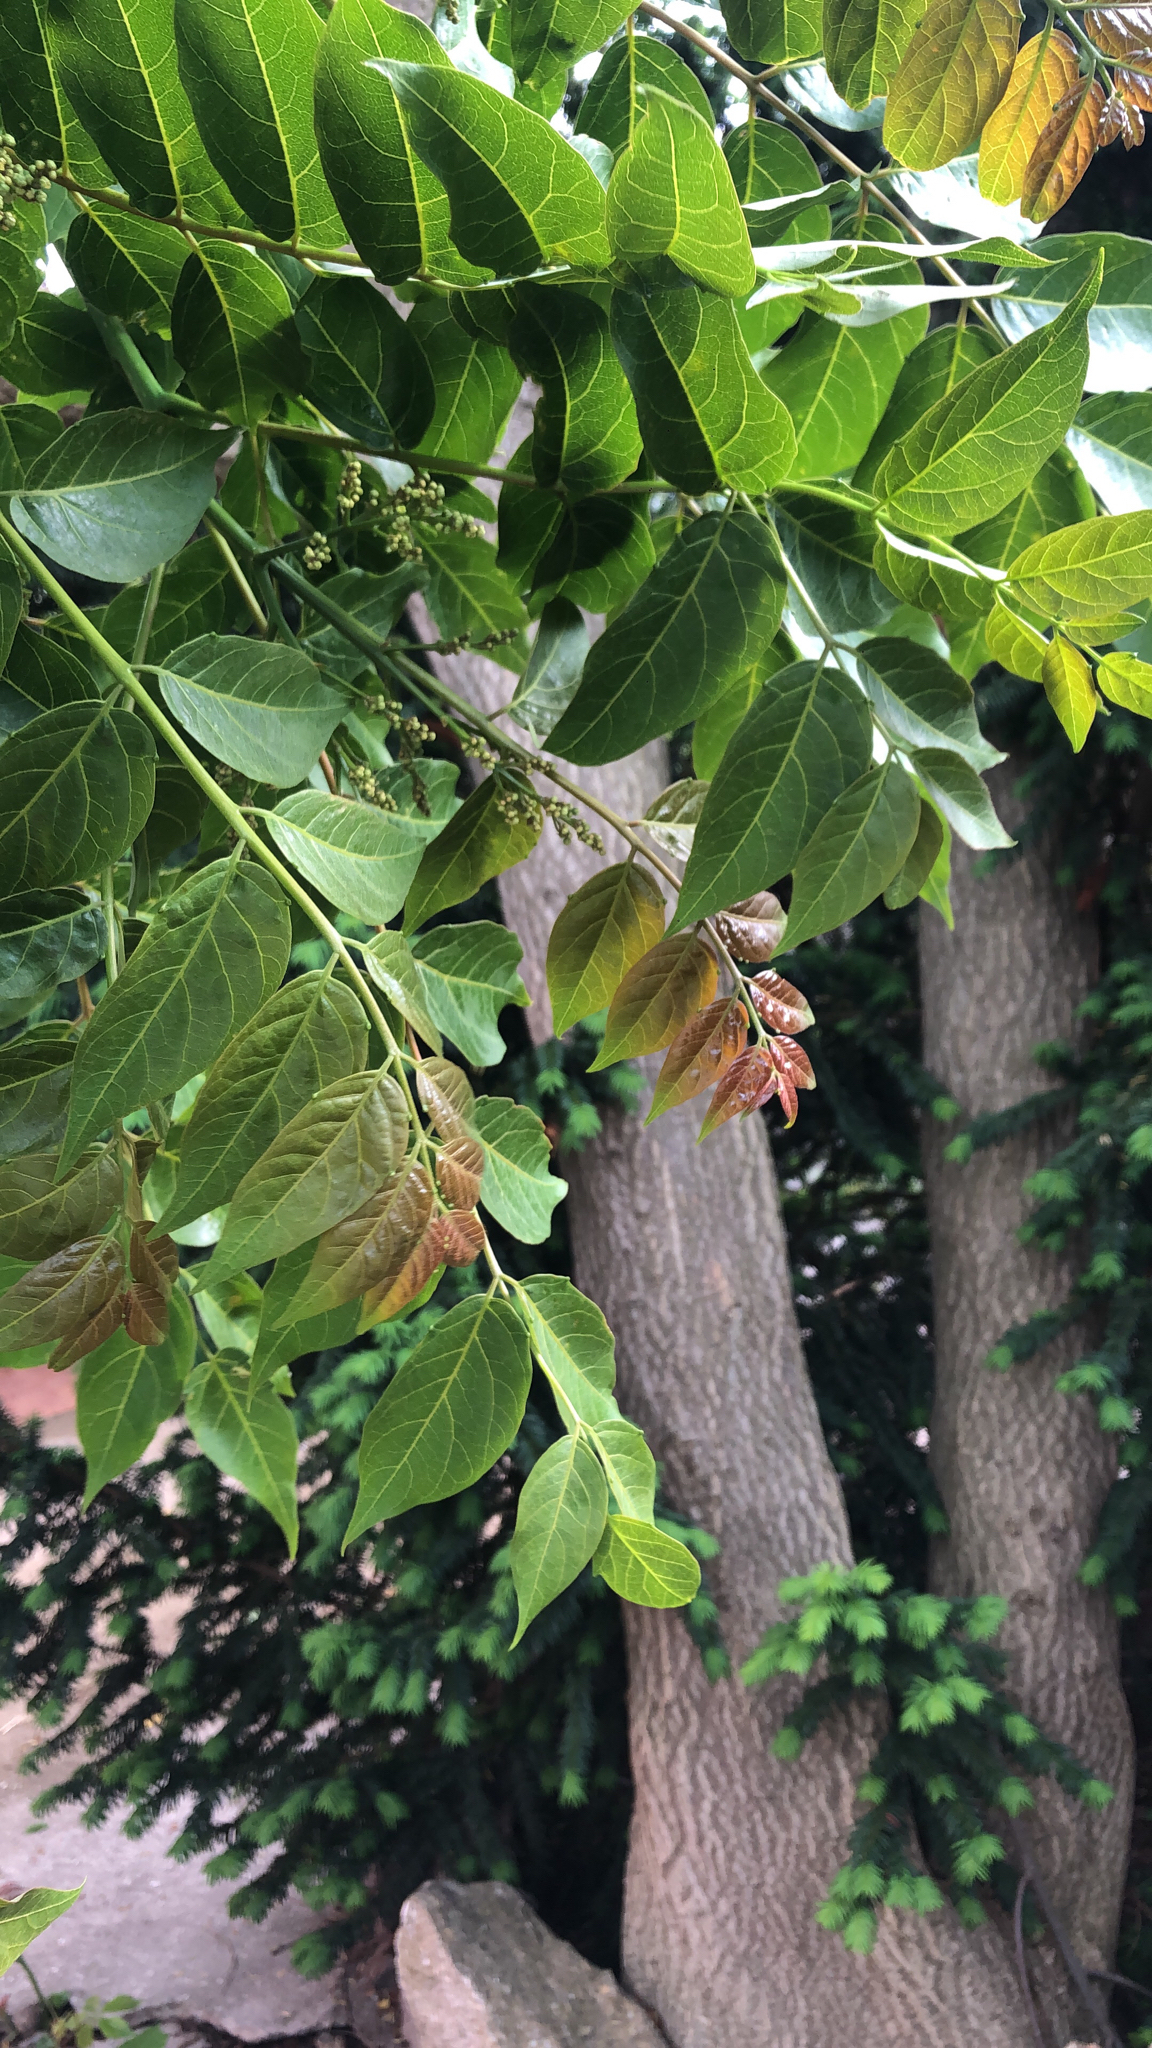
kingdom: Plantae
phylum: Tracheophyta
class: Magnoliopsida
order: Sapindales
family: Simaroubaceae
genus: Ailanthus
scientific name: Ailanthus altissima
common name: Tree-of-heaven
